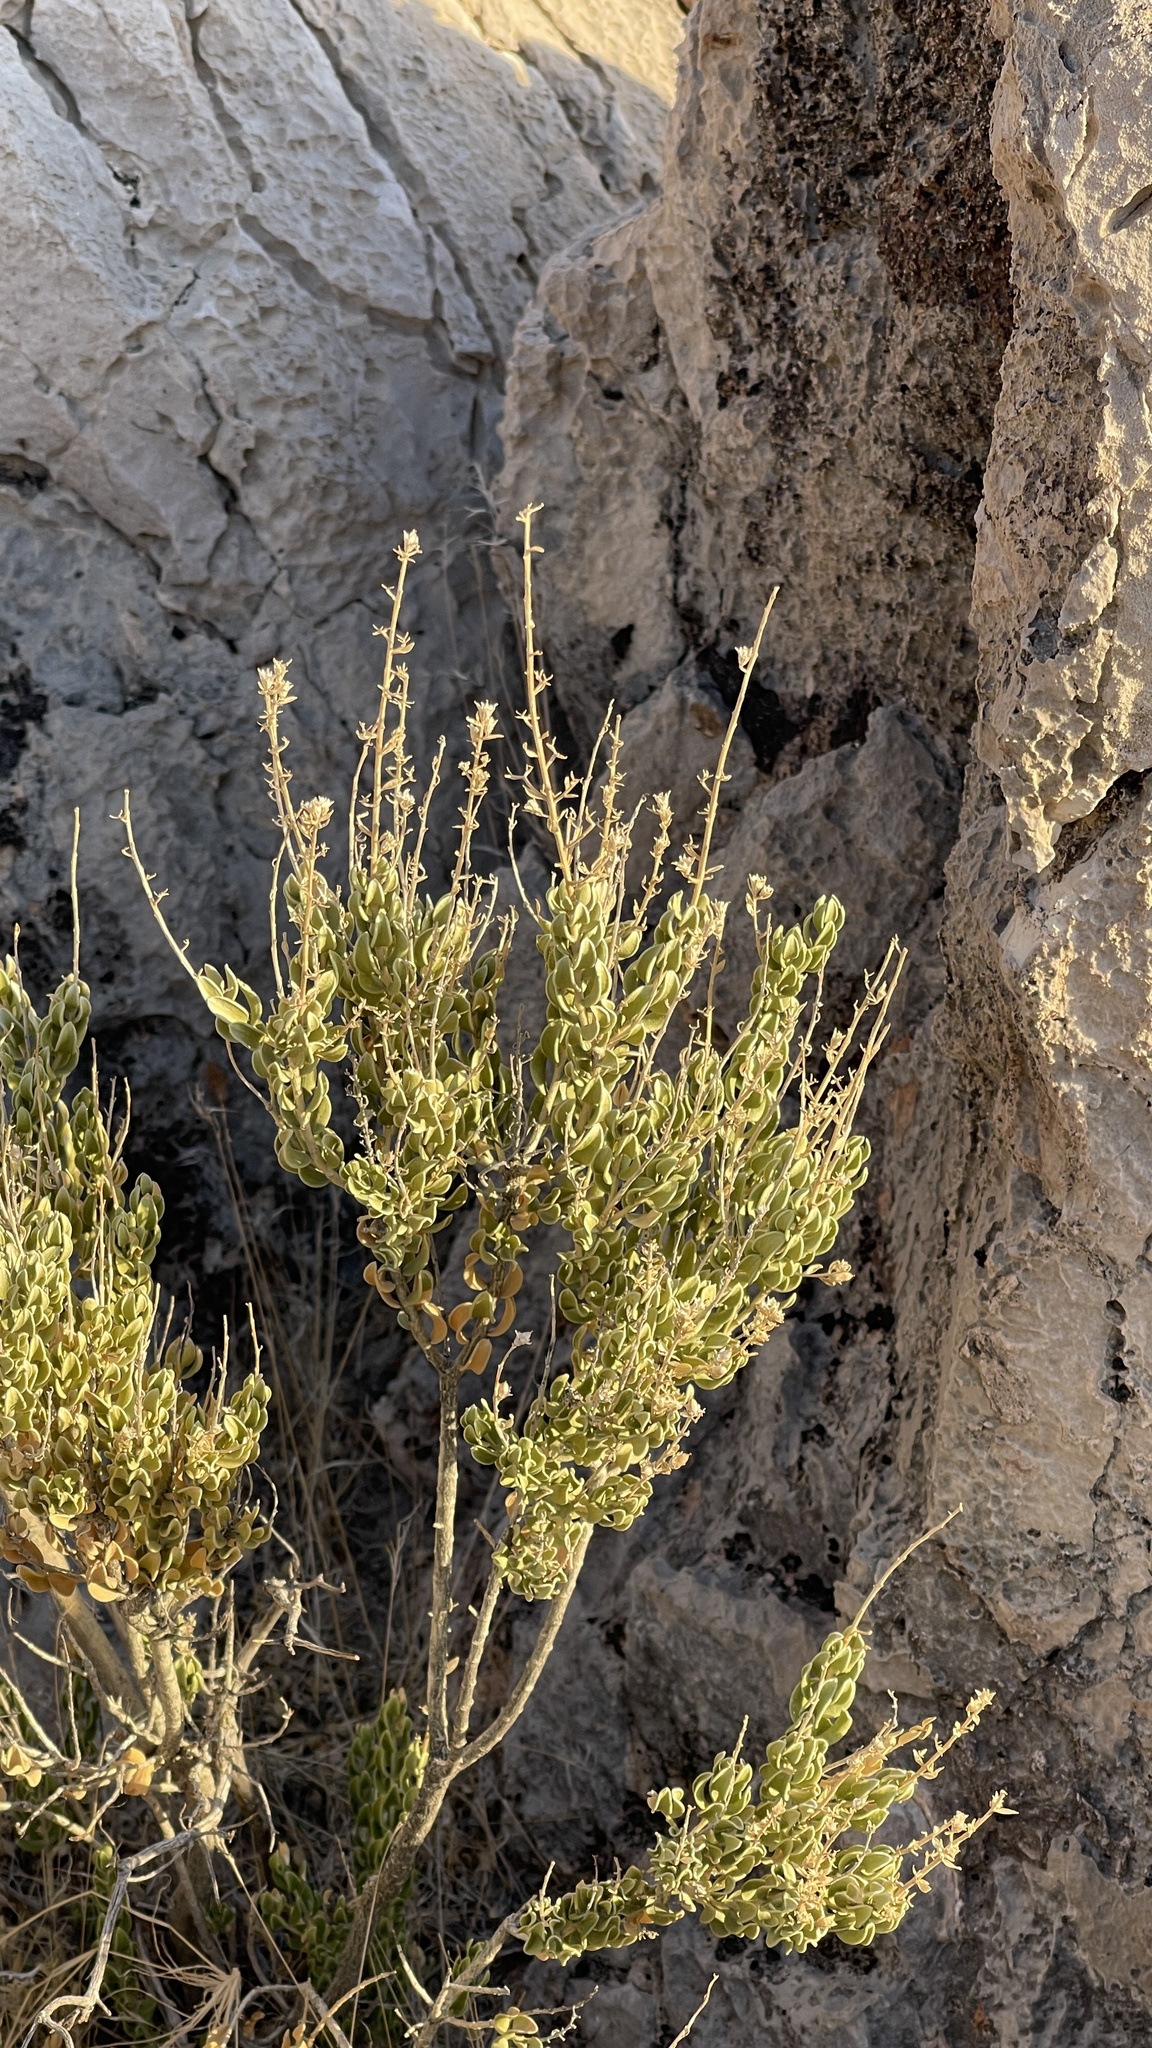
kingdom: Plantae
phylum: Tracheophyta
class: Magnoliopsida
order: Celastrales
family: Celastraceae
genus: Mortonia
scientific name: Mortonia utahensis
